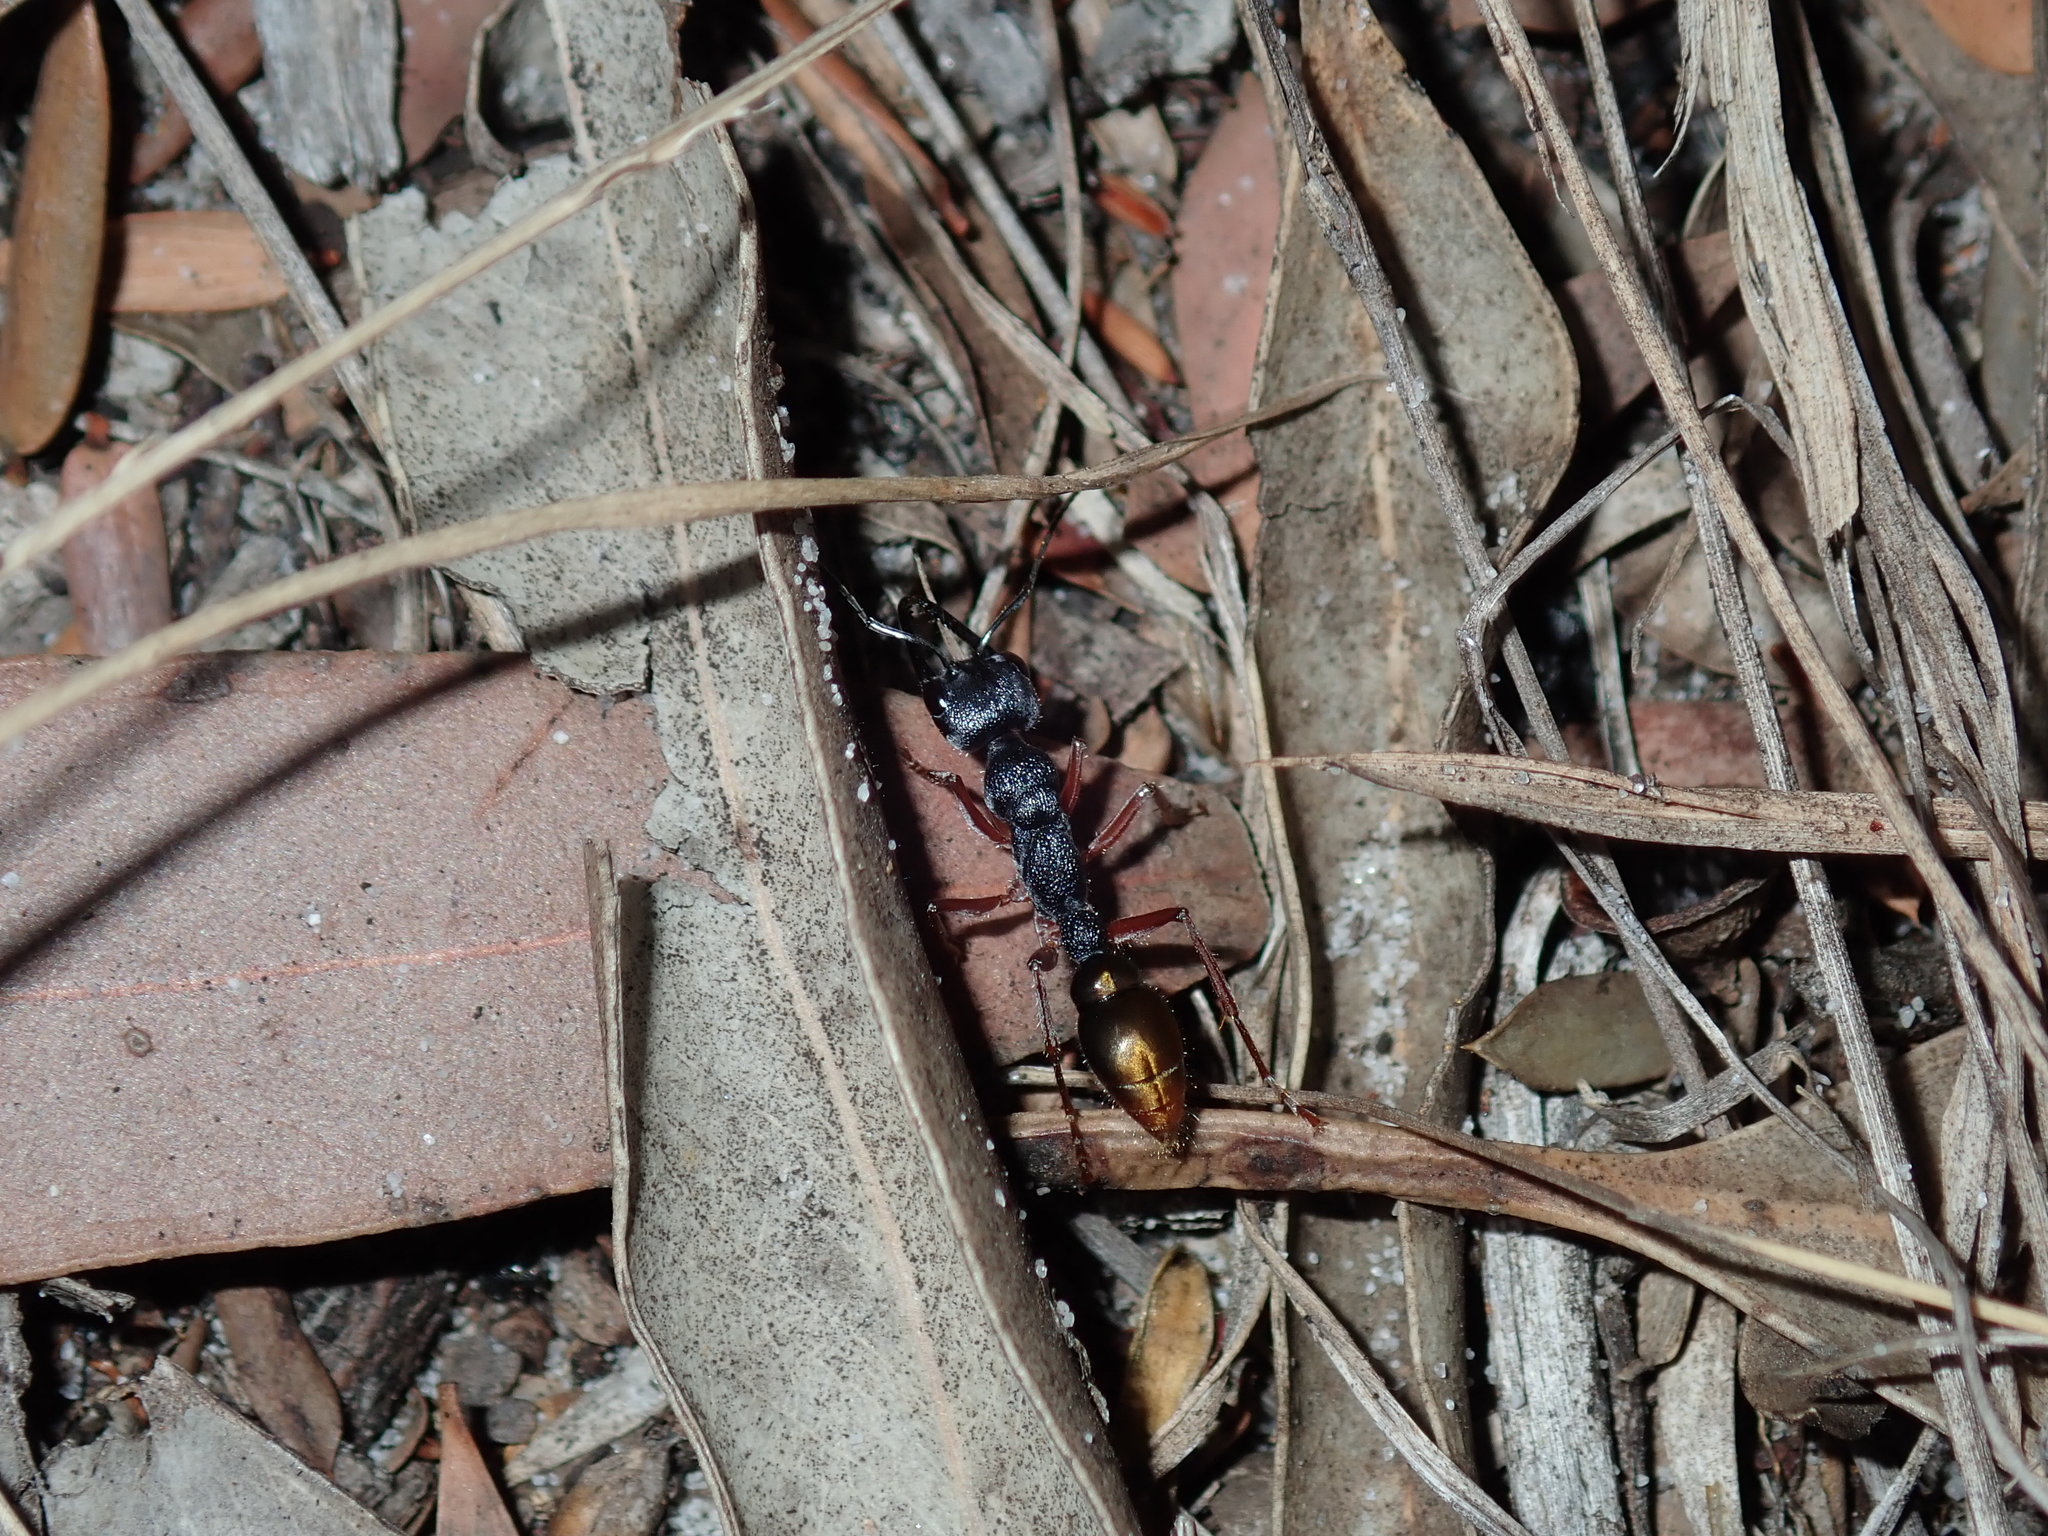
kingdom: Animalia
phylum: Arthropoda
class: Insecta
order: Hymenoptera
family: Formicidae
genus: Myrmecia
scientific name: Myrmecia fulvipes
